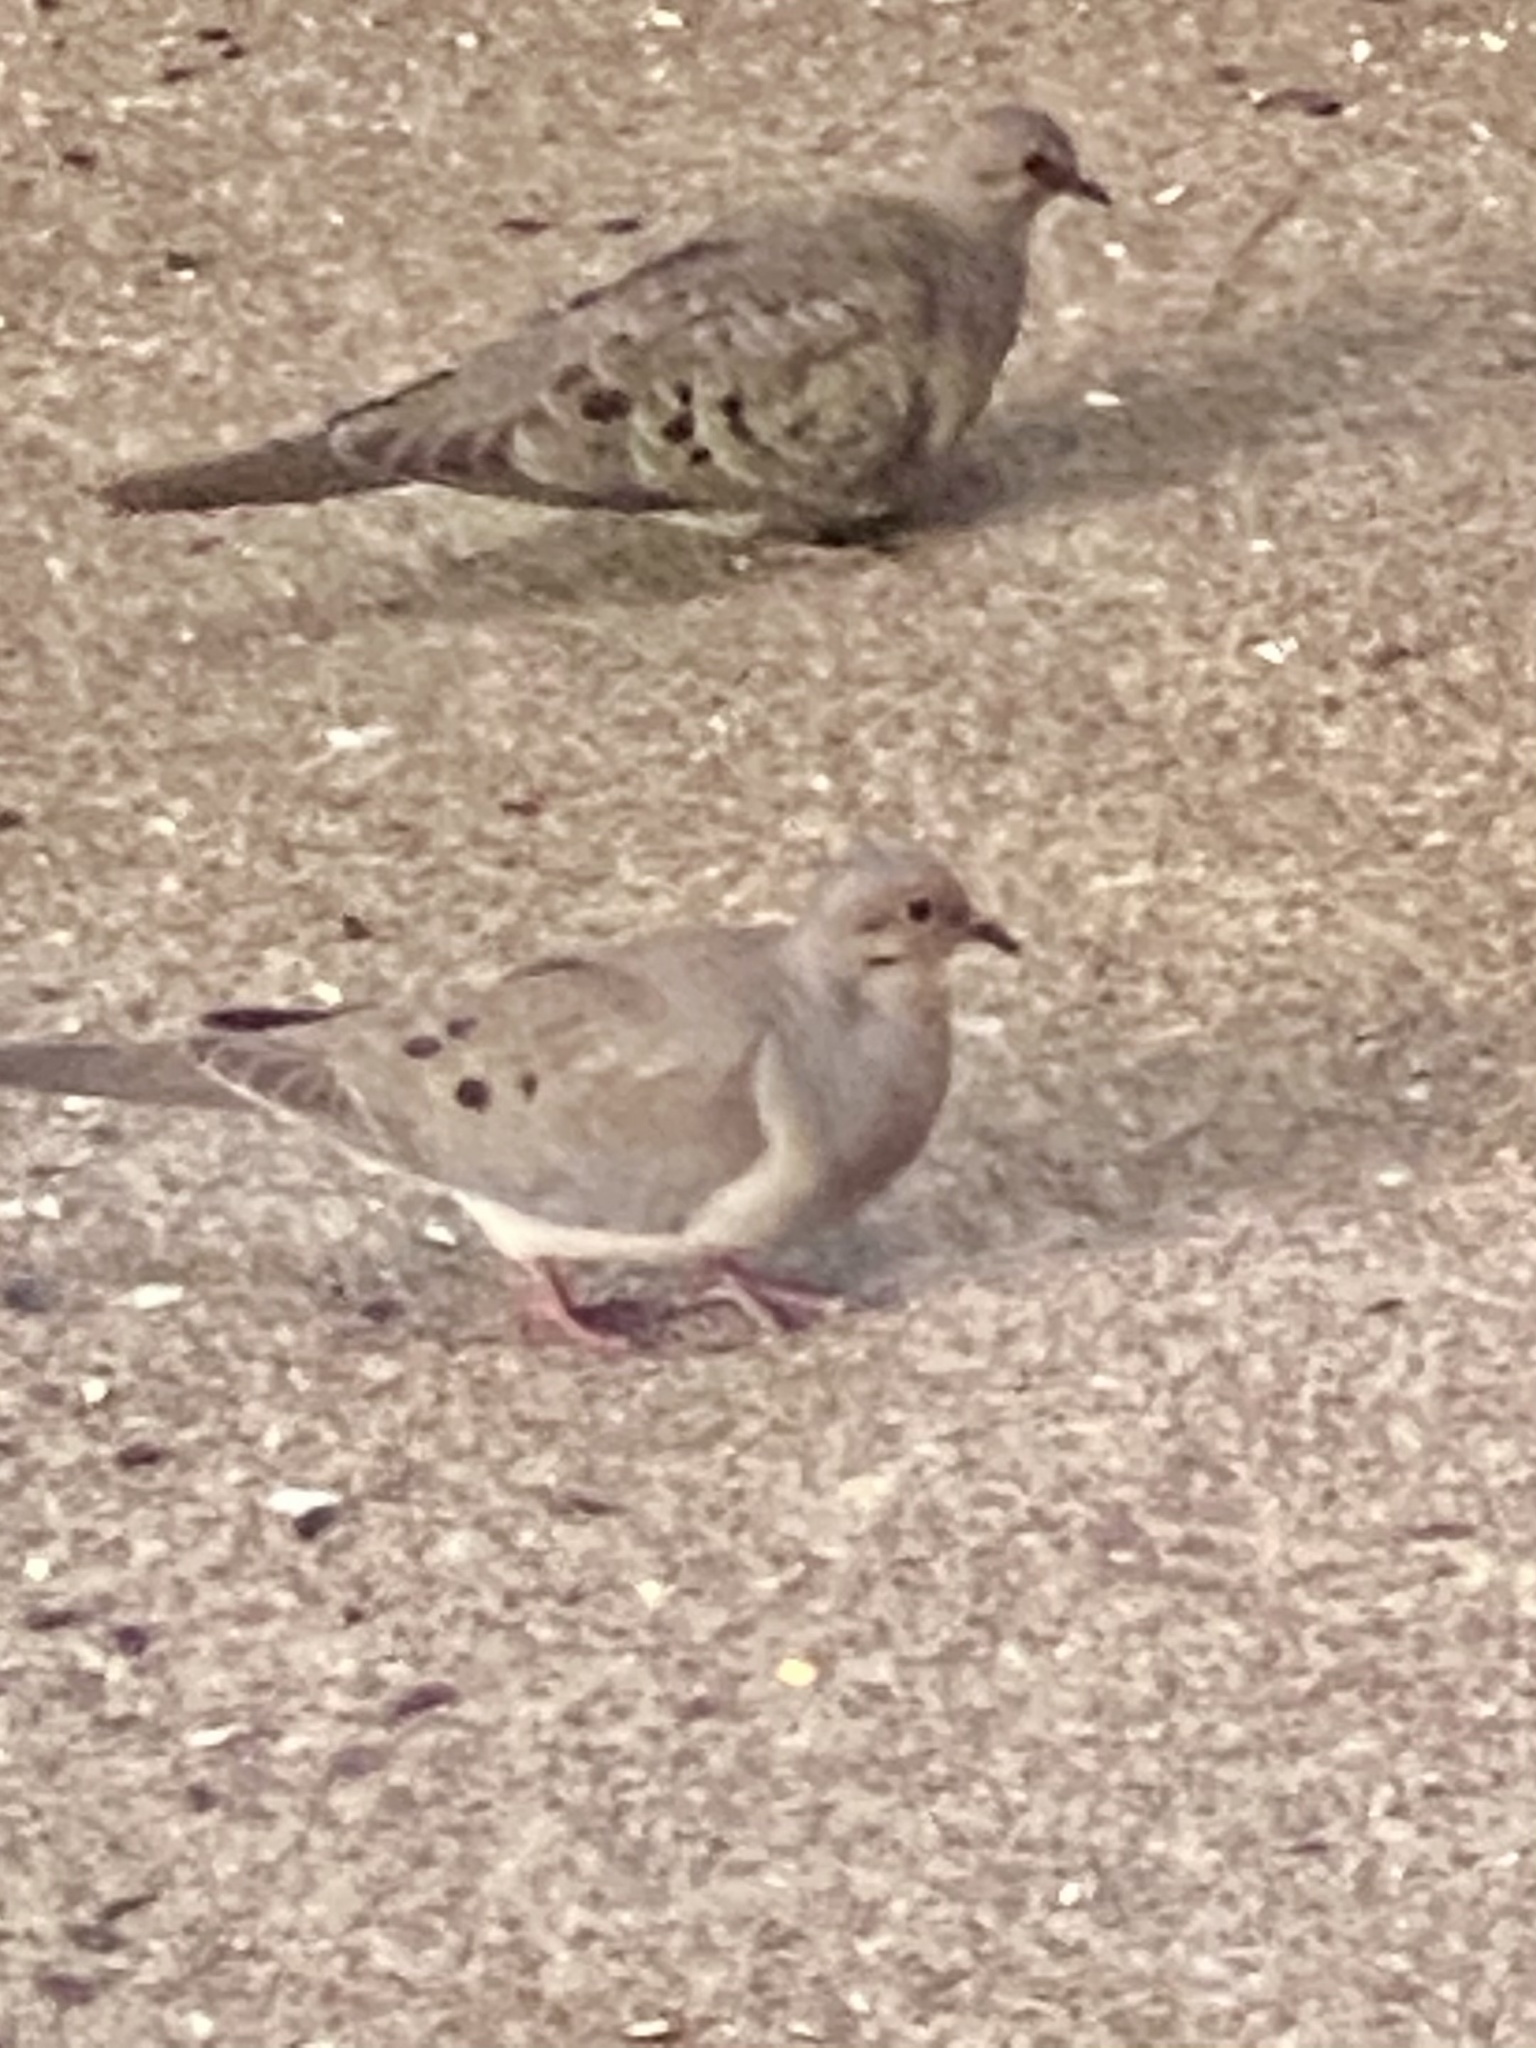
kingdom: Animalia
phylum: Chordata
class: Aves
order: Columbiformes
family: Columbidae
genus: Zenaida
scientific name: Zenaida macroura
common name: Mourning dove
